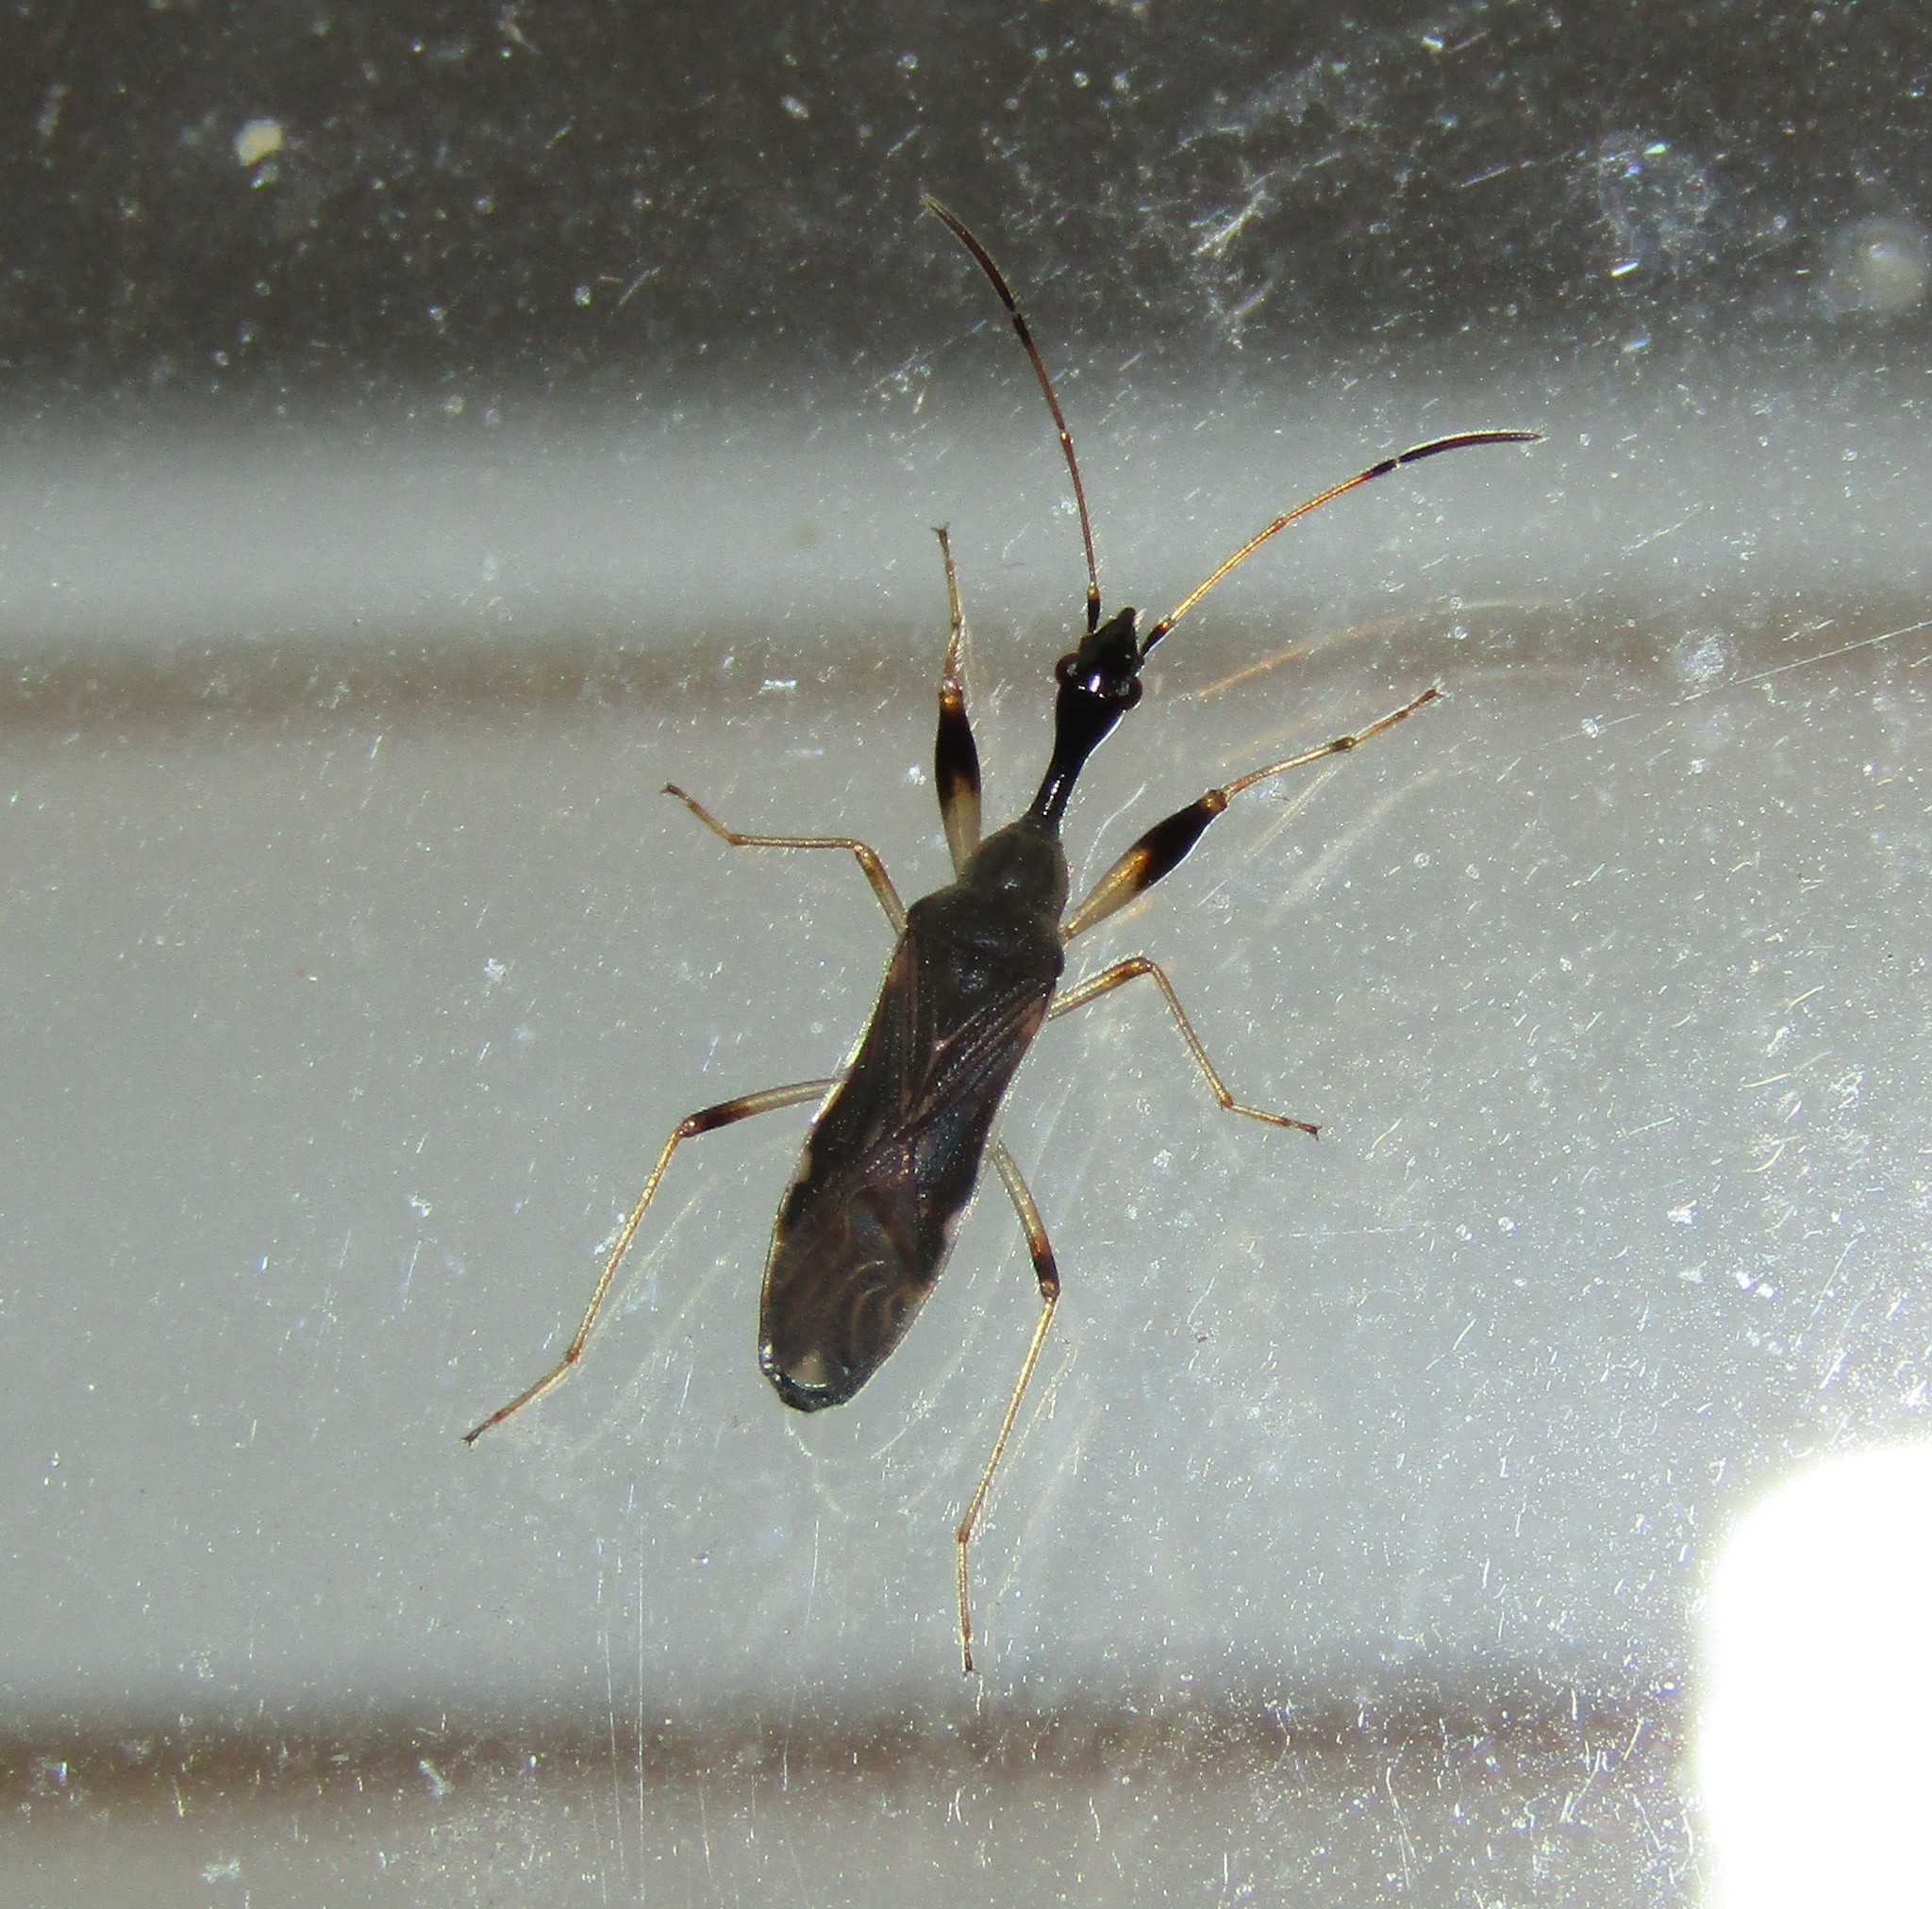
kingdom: Animalia
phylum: Arthropoda
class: Insecta
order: Hemiptera
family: Rhyparochromidae
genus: Myodocha
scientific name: Myodocha serripes
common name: Long-necked seed bug
